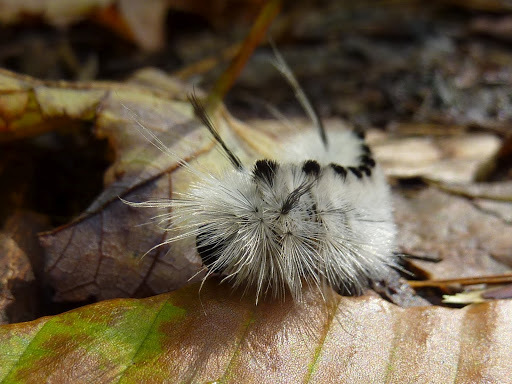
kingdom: Animalia
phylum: Arthropoda
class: Insecta
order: Lepidoptera
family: Erebidae
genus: Lophocampa
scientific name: Lophocampa caryae
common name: Hickory tussock moth
